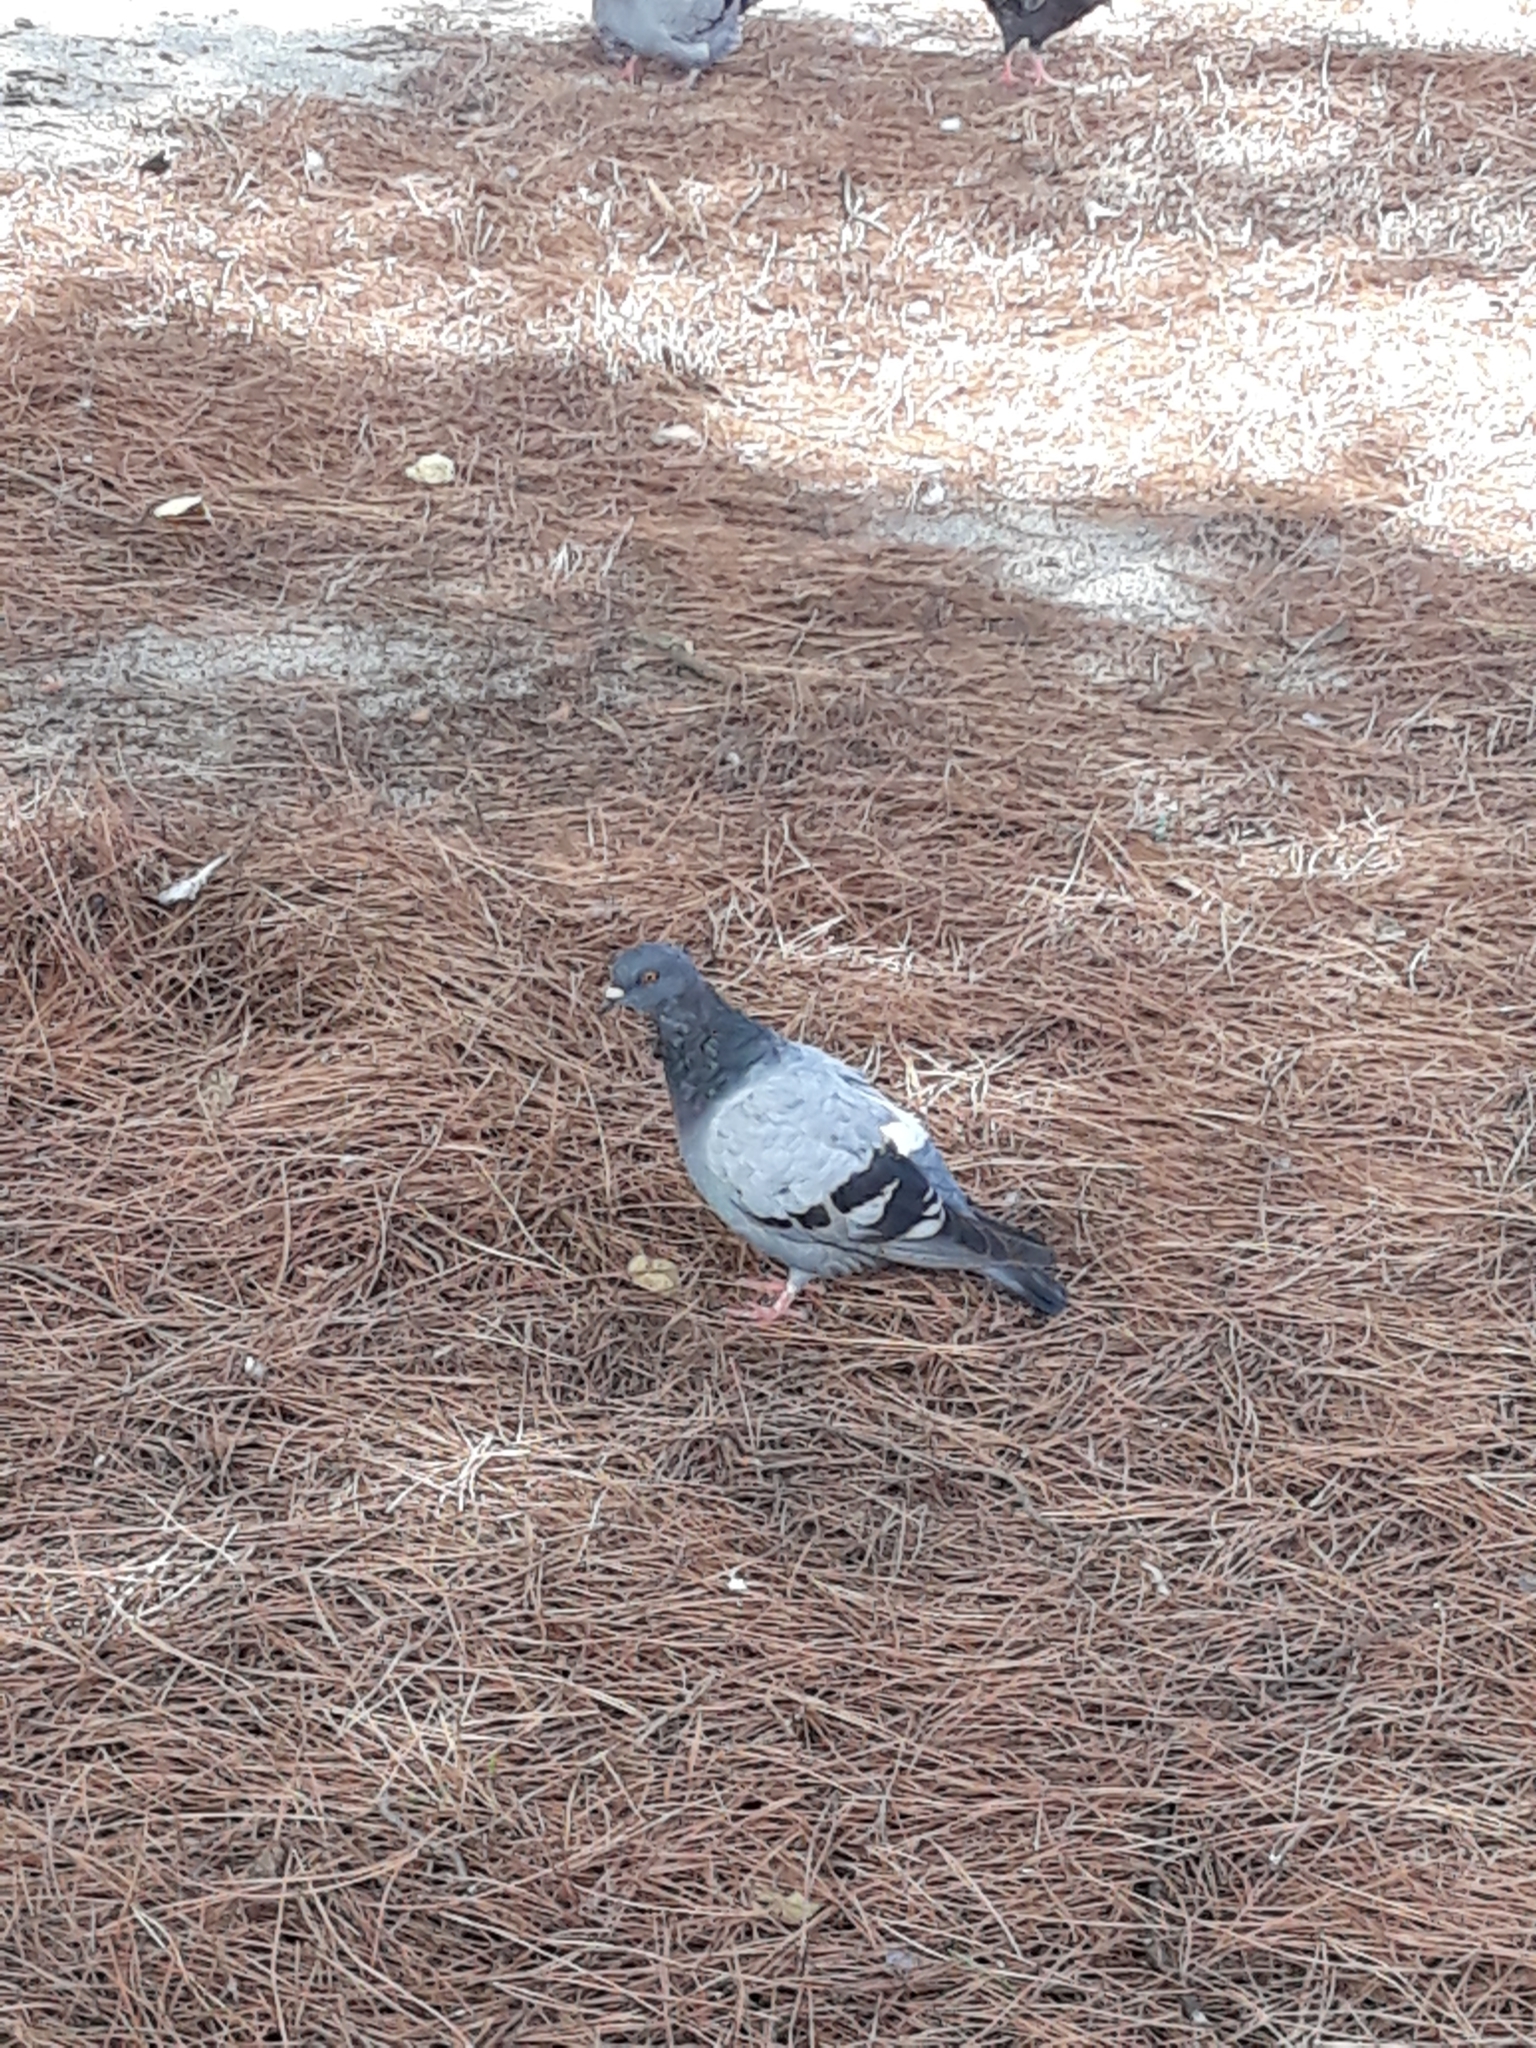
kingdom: Animalia
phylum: Chordata
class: Aves
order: Columbiformes
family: Columbidae
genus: Columba
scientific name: Columba livia
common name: Rock pigeon
